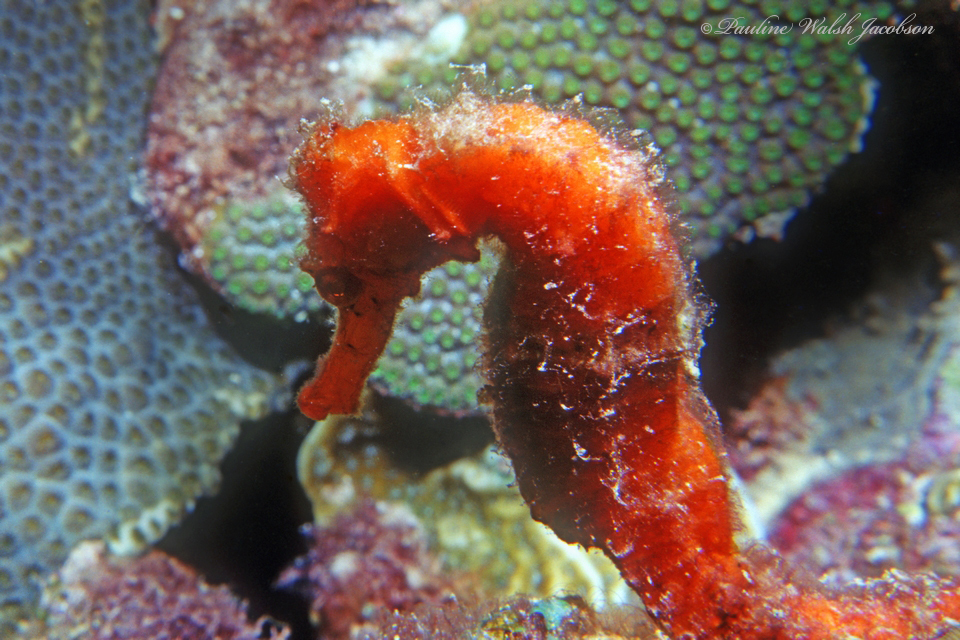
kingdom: Animalia
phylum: Chordata
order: Syngnathiformes
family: Syngnathidae
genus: Hippocampus
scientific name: Hippocampus reidi
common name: Slender seahorse
